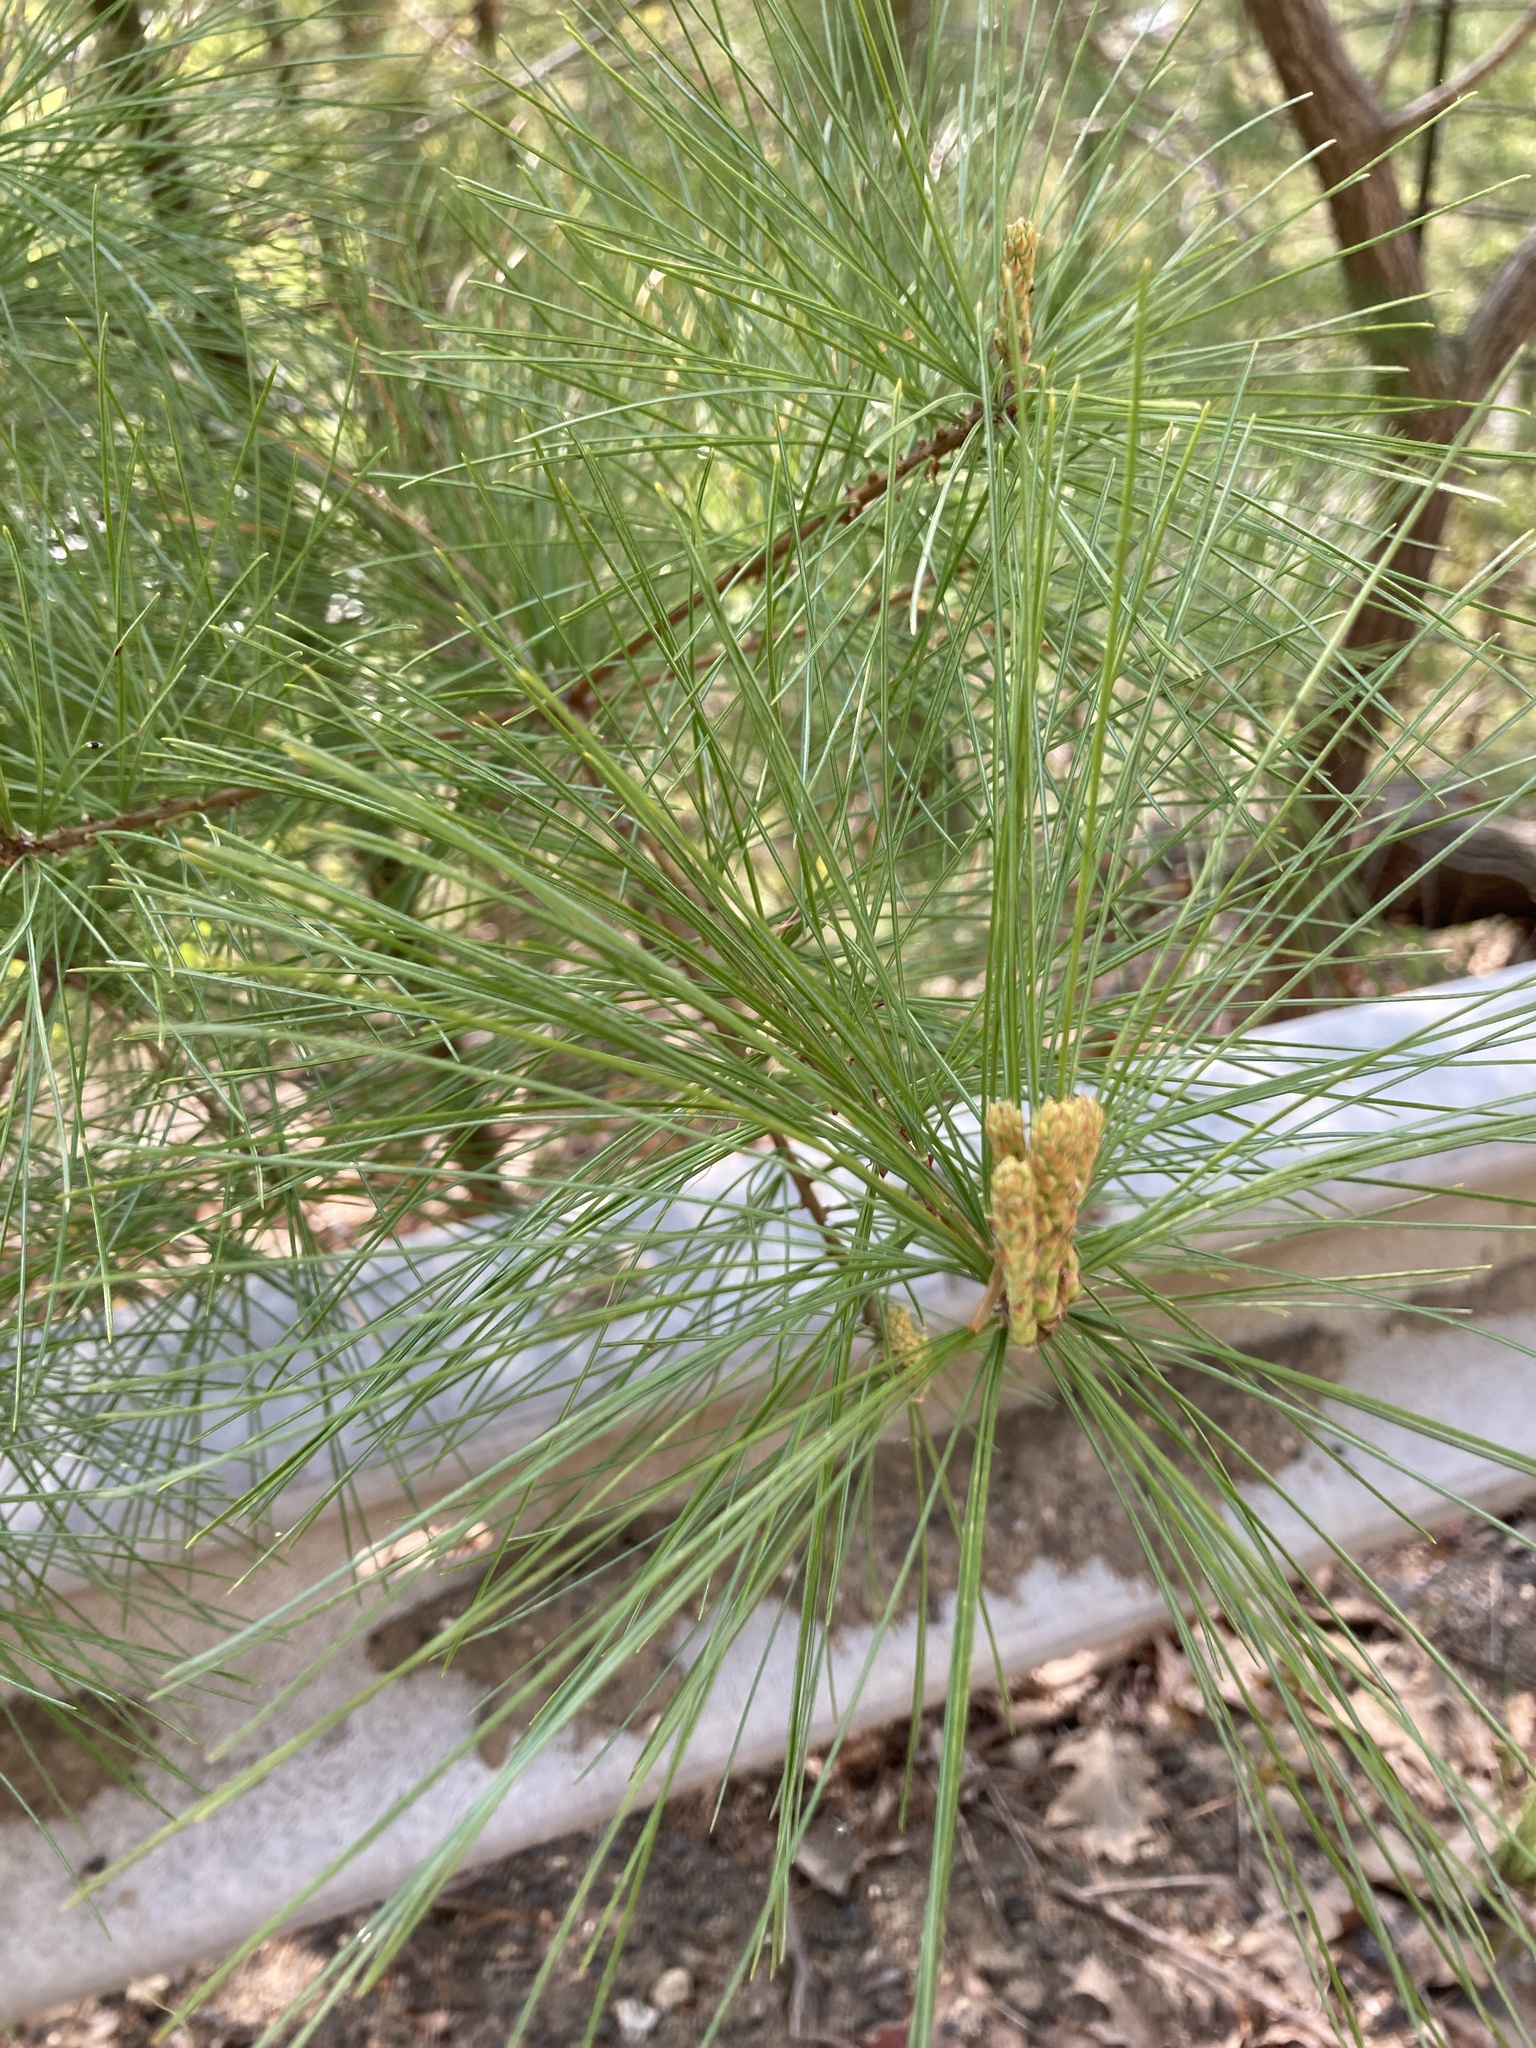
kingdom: Plantae
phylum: Tracheophyta
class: Pinopsida
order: Pinales
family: Pinaceae
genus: Pinus
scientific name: Pinus strobus
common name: Weymouth pine
